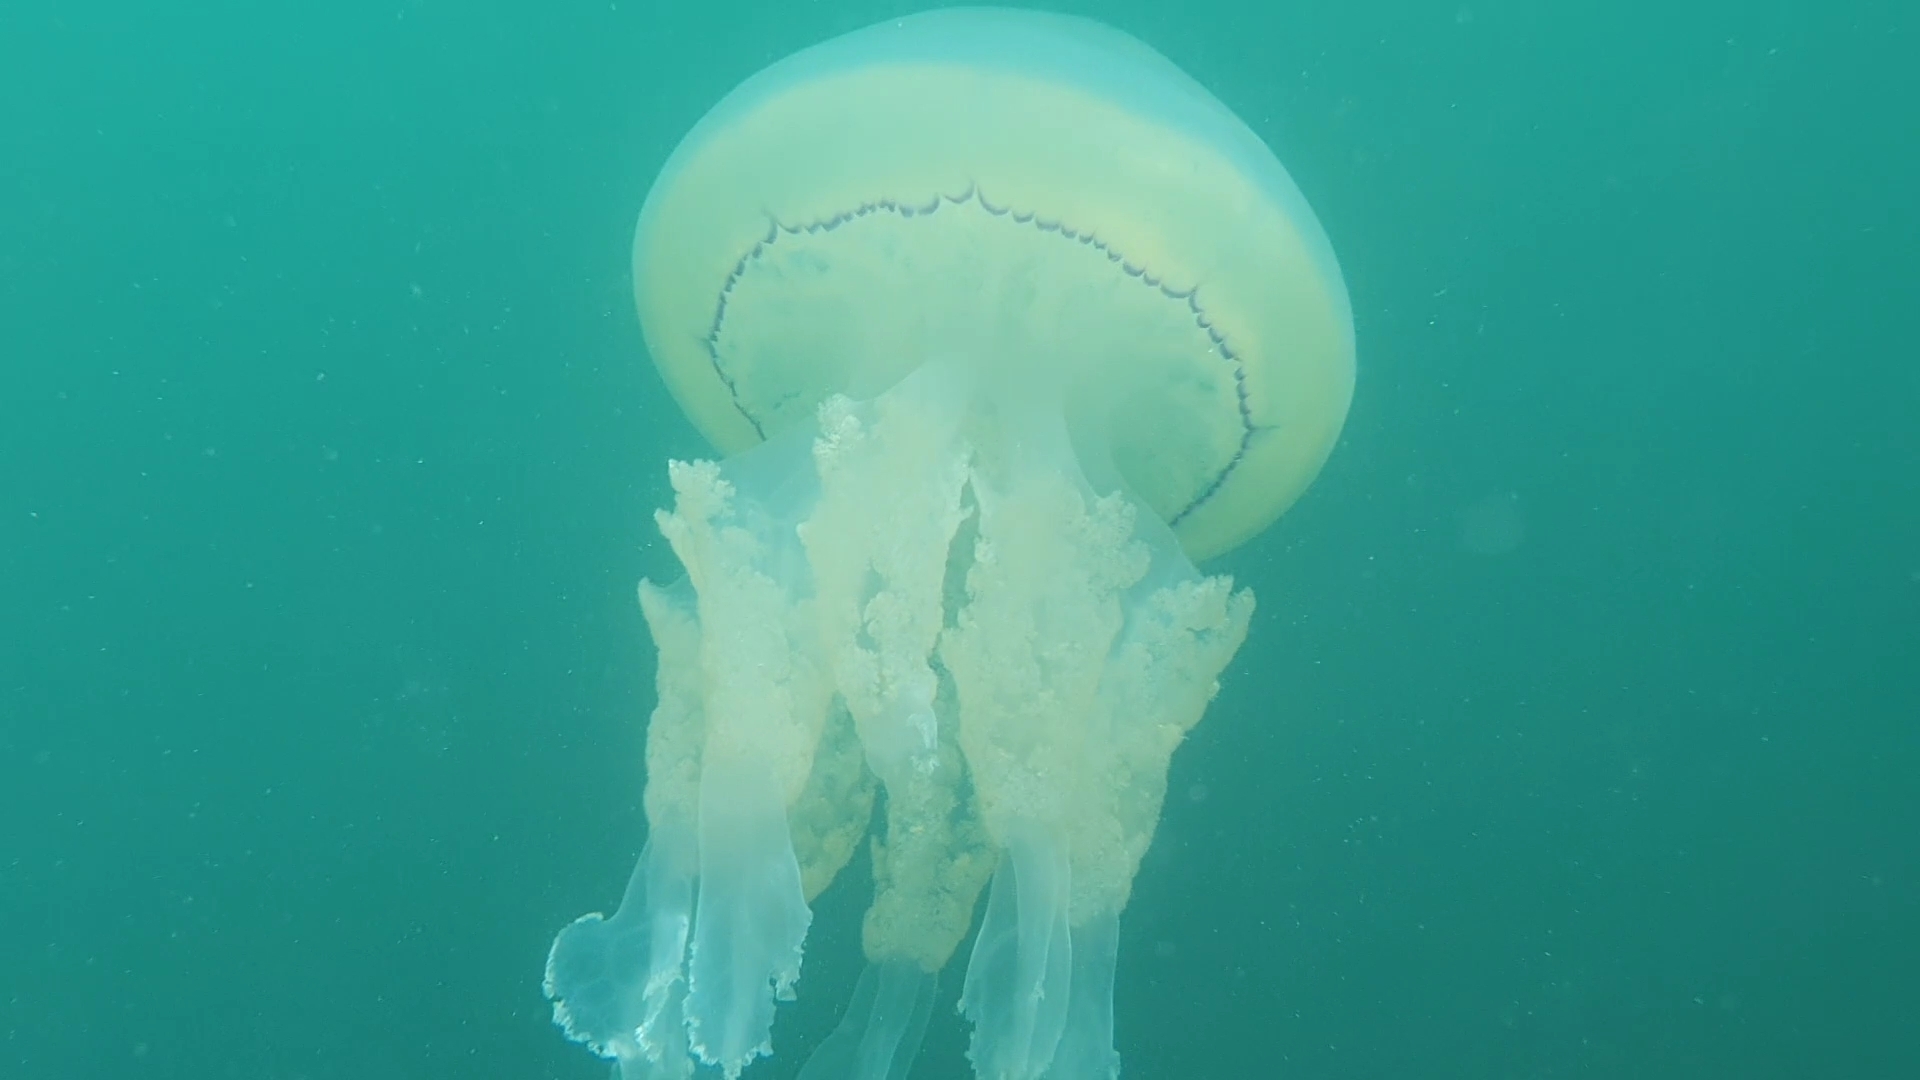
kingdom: Animalia
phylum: Cnidaria
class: Scyphozoa
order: Rhizostomeae
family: Rhizostomatidae
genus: Rhizostoma
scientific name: Rhizostoma octopus
